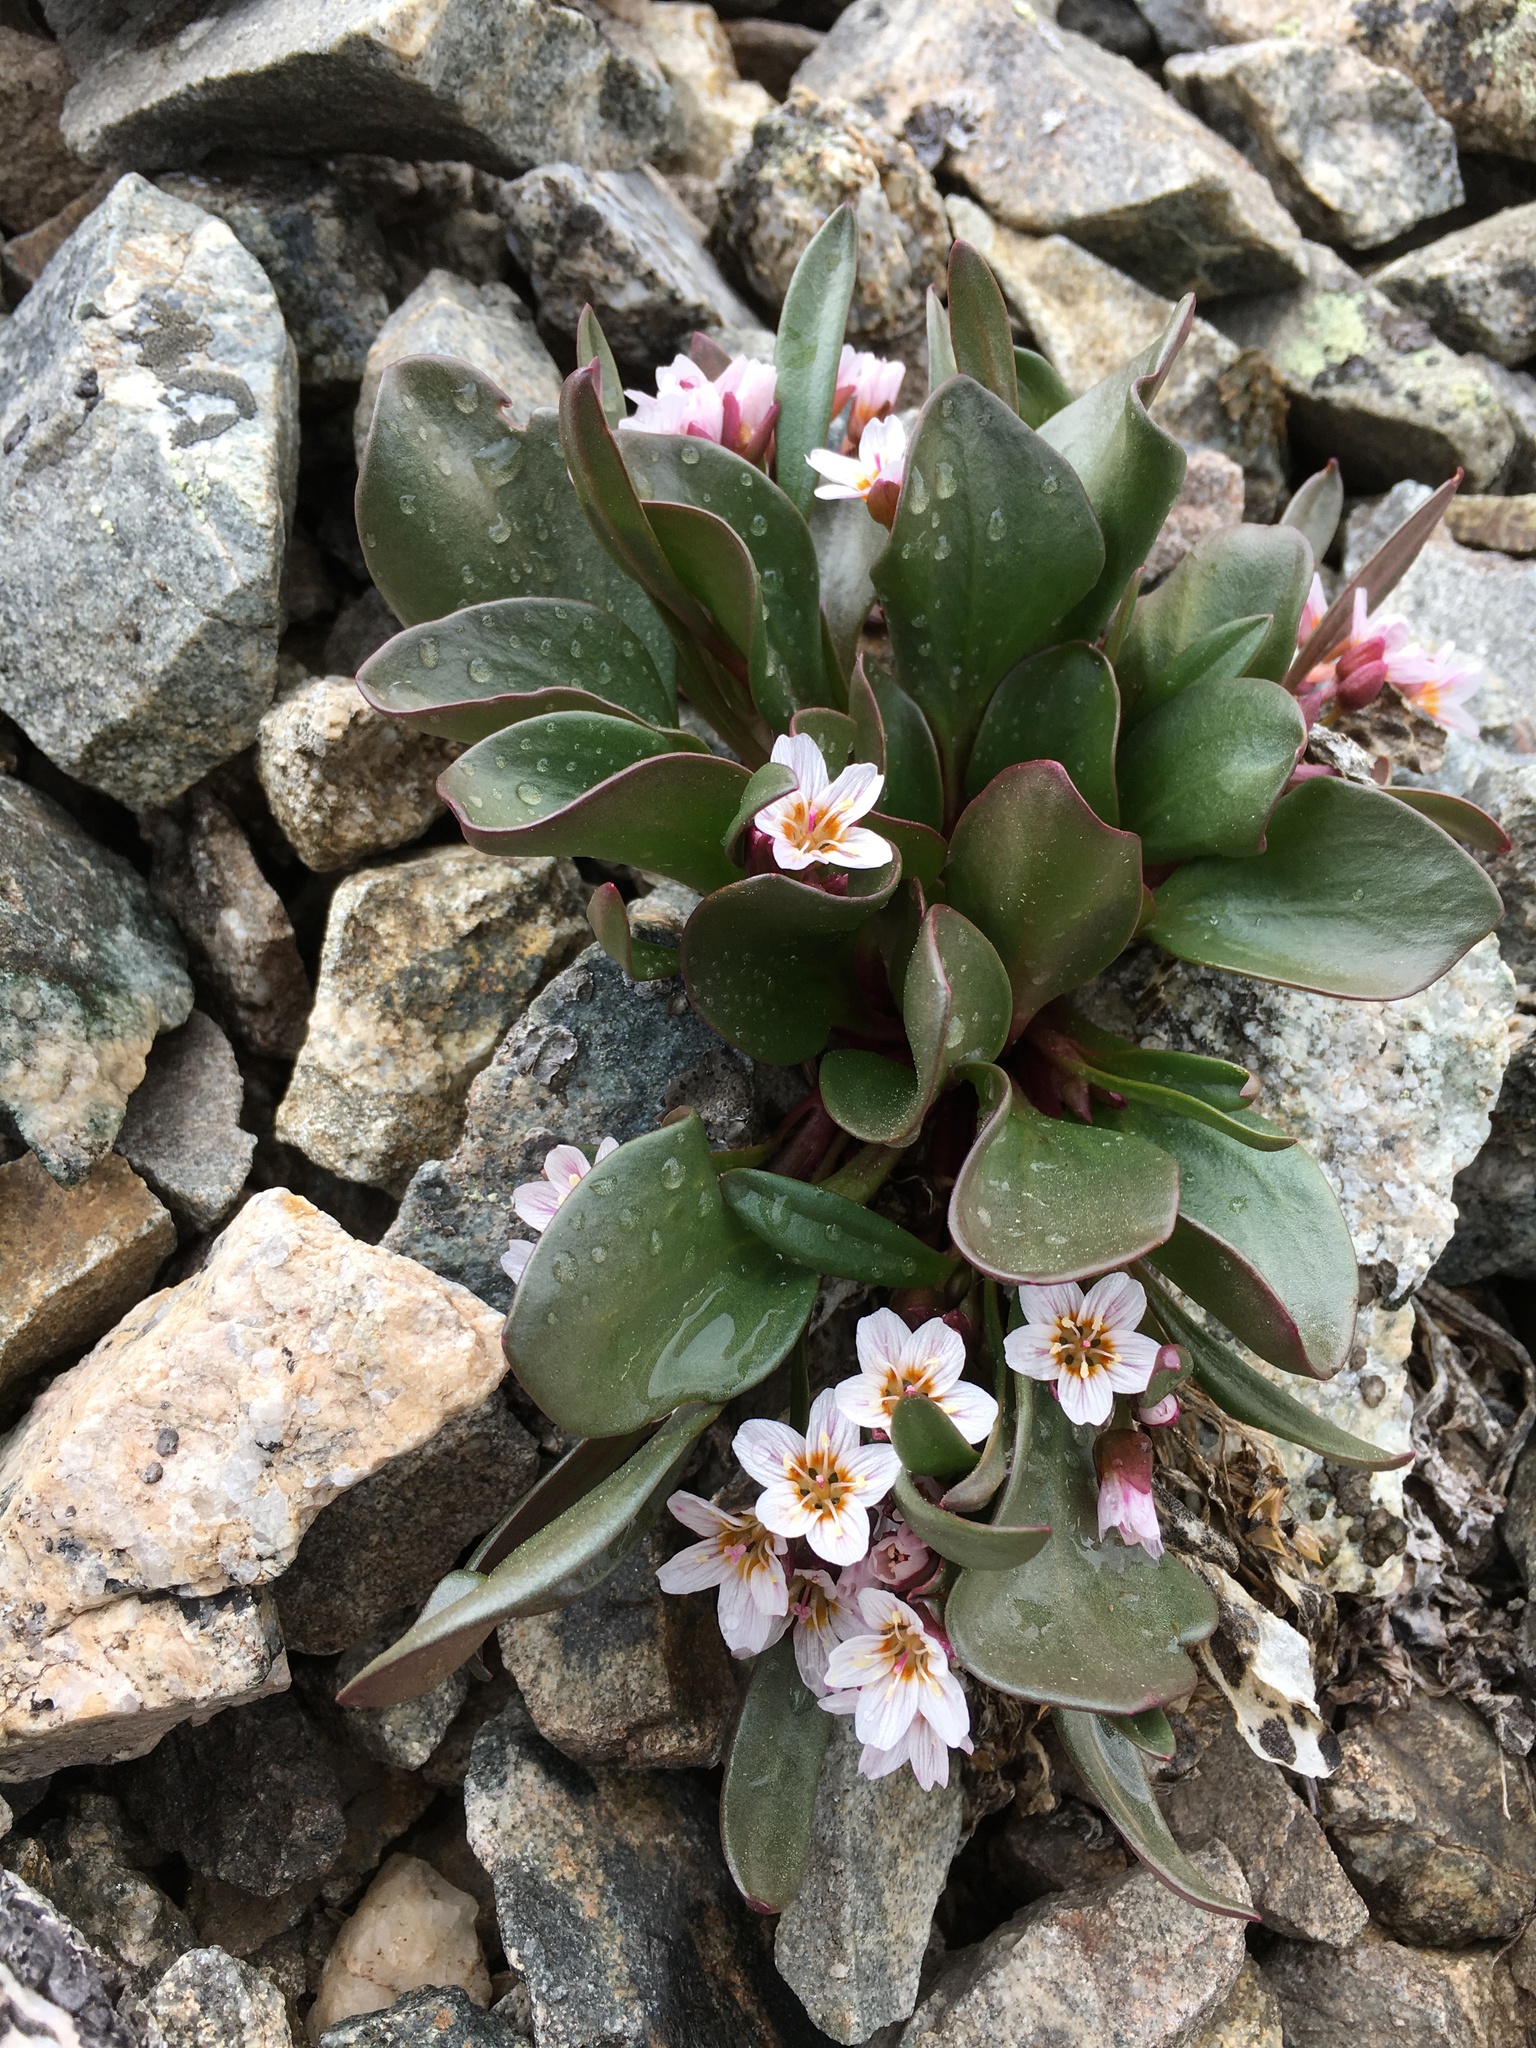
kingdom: Plantae
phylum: Tracheophyta
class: Magnoliopsida
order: Caryophyllales
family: Montiaceae
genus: Claytonia
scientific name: Claytonia megarhiza
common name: Alpine spring beauty
